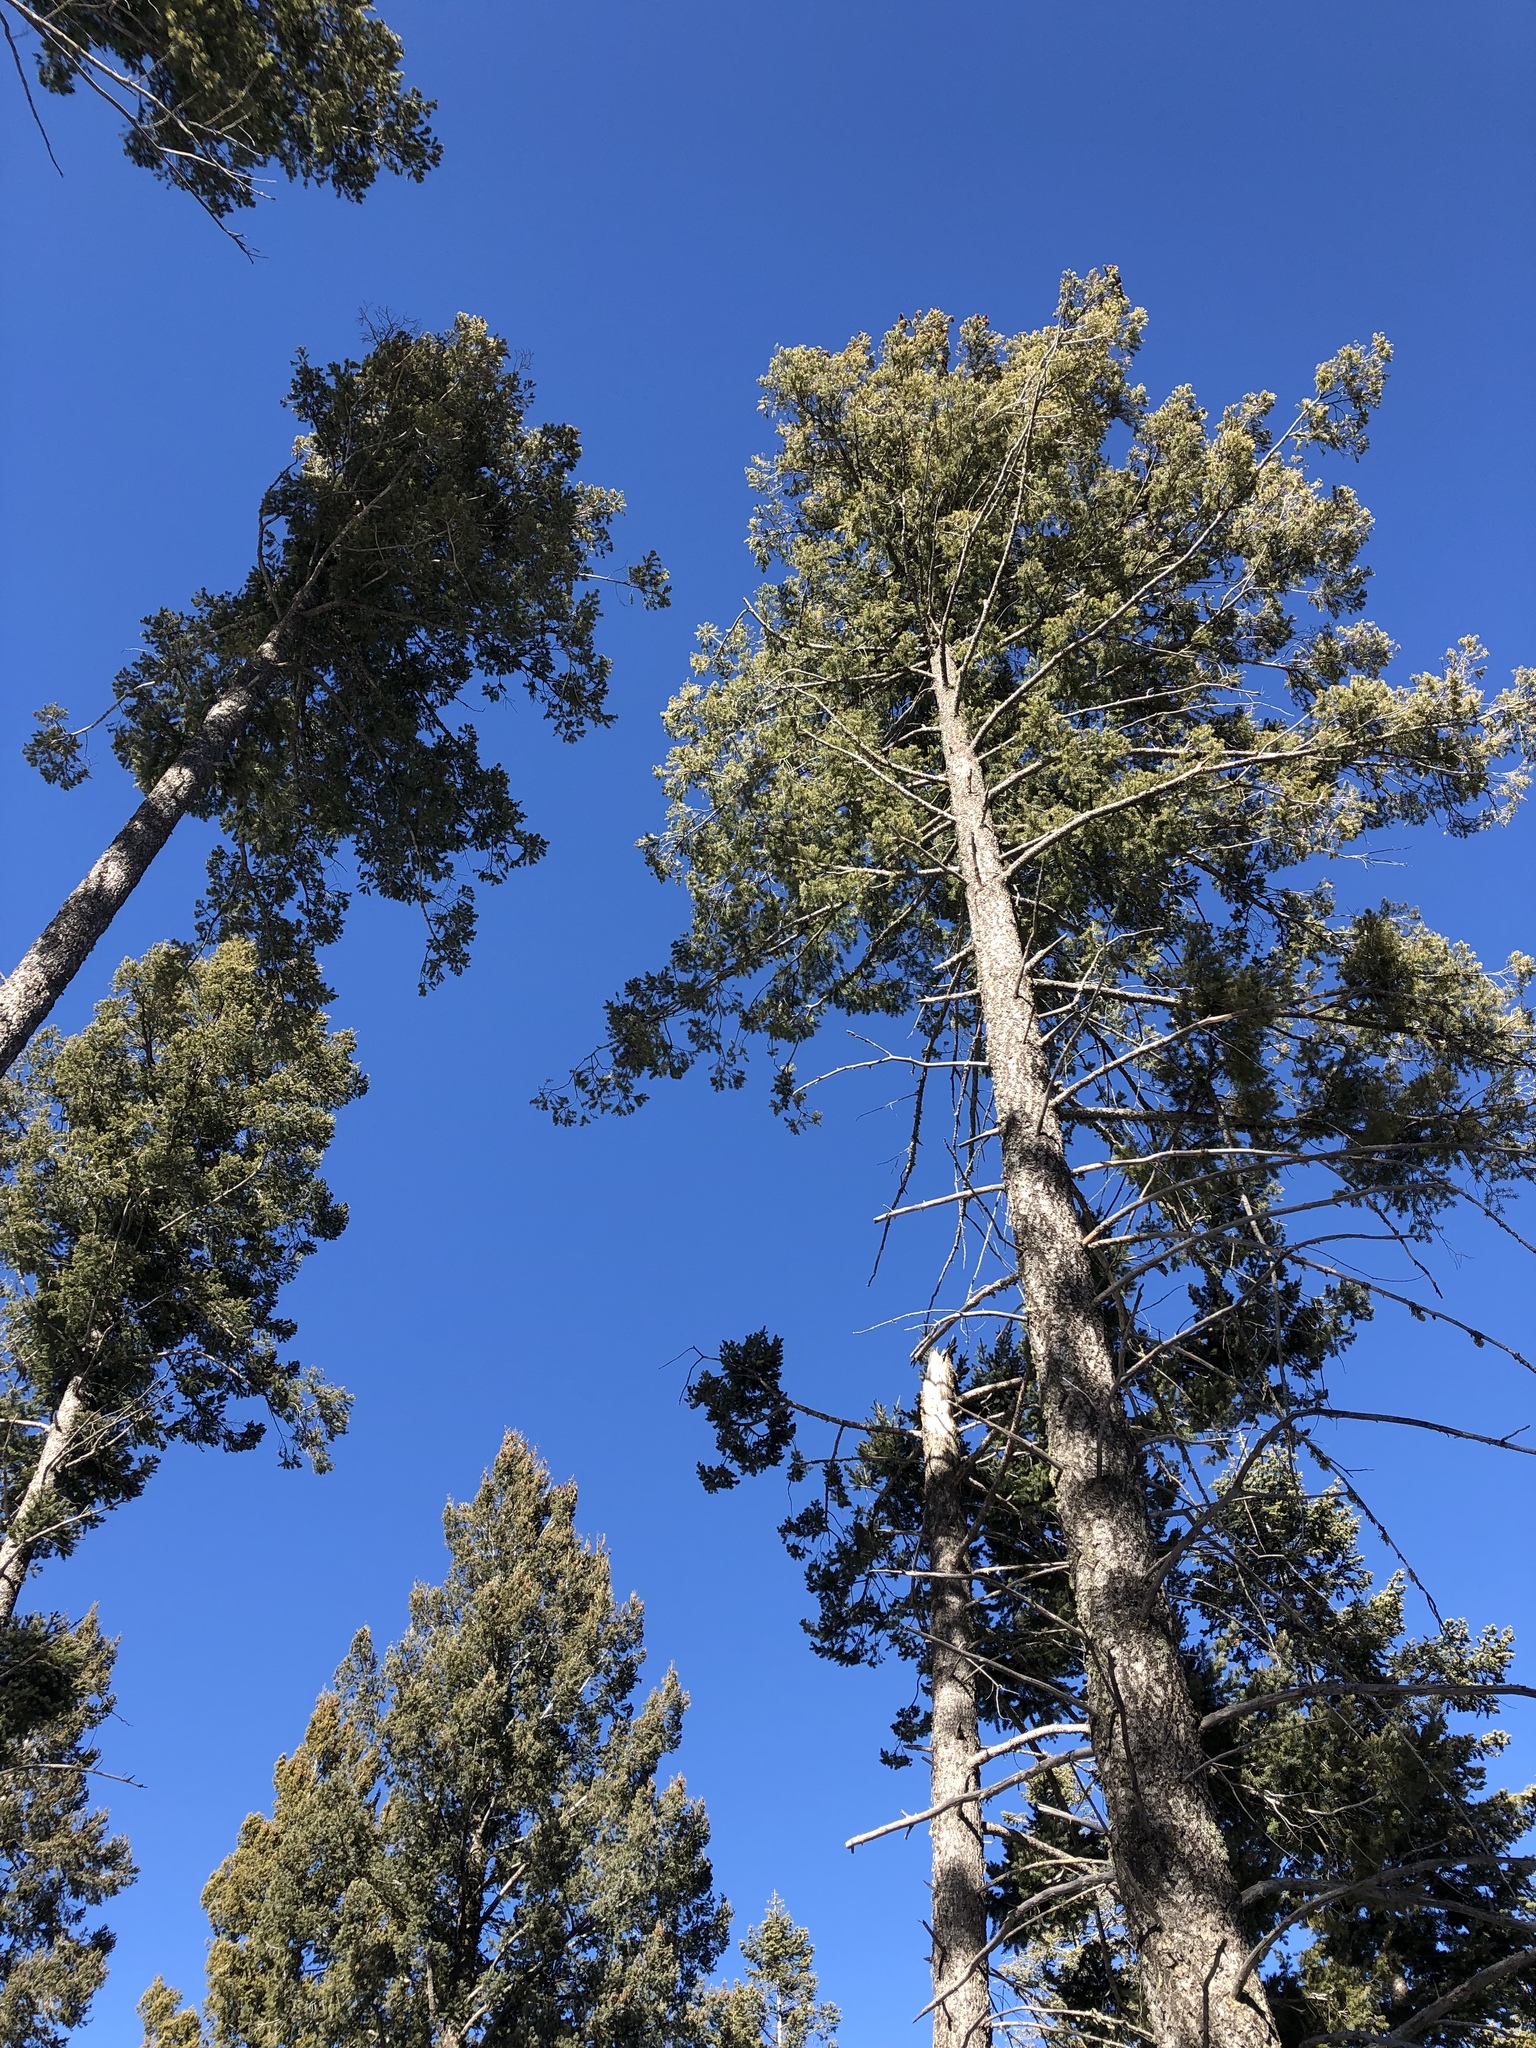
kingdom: Plantae
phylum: Tracheophyta
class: Pinopsida
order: Pinales
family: Pinaceae
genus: Pinus
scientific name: Pinus ponderosa
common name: Western yellow-pine
